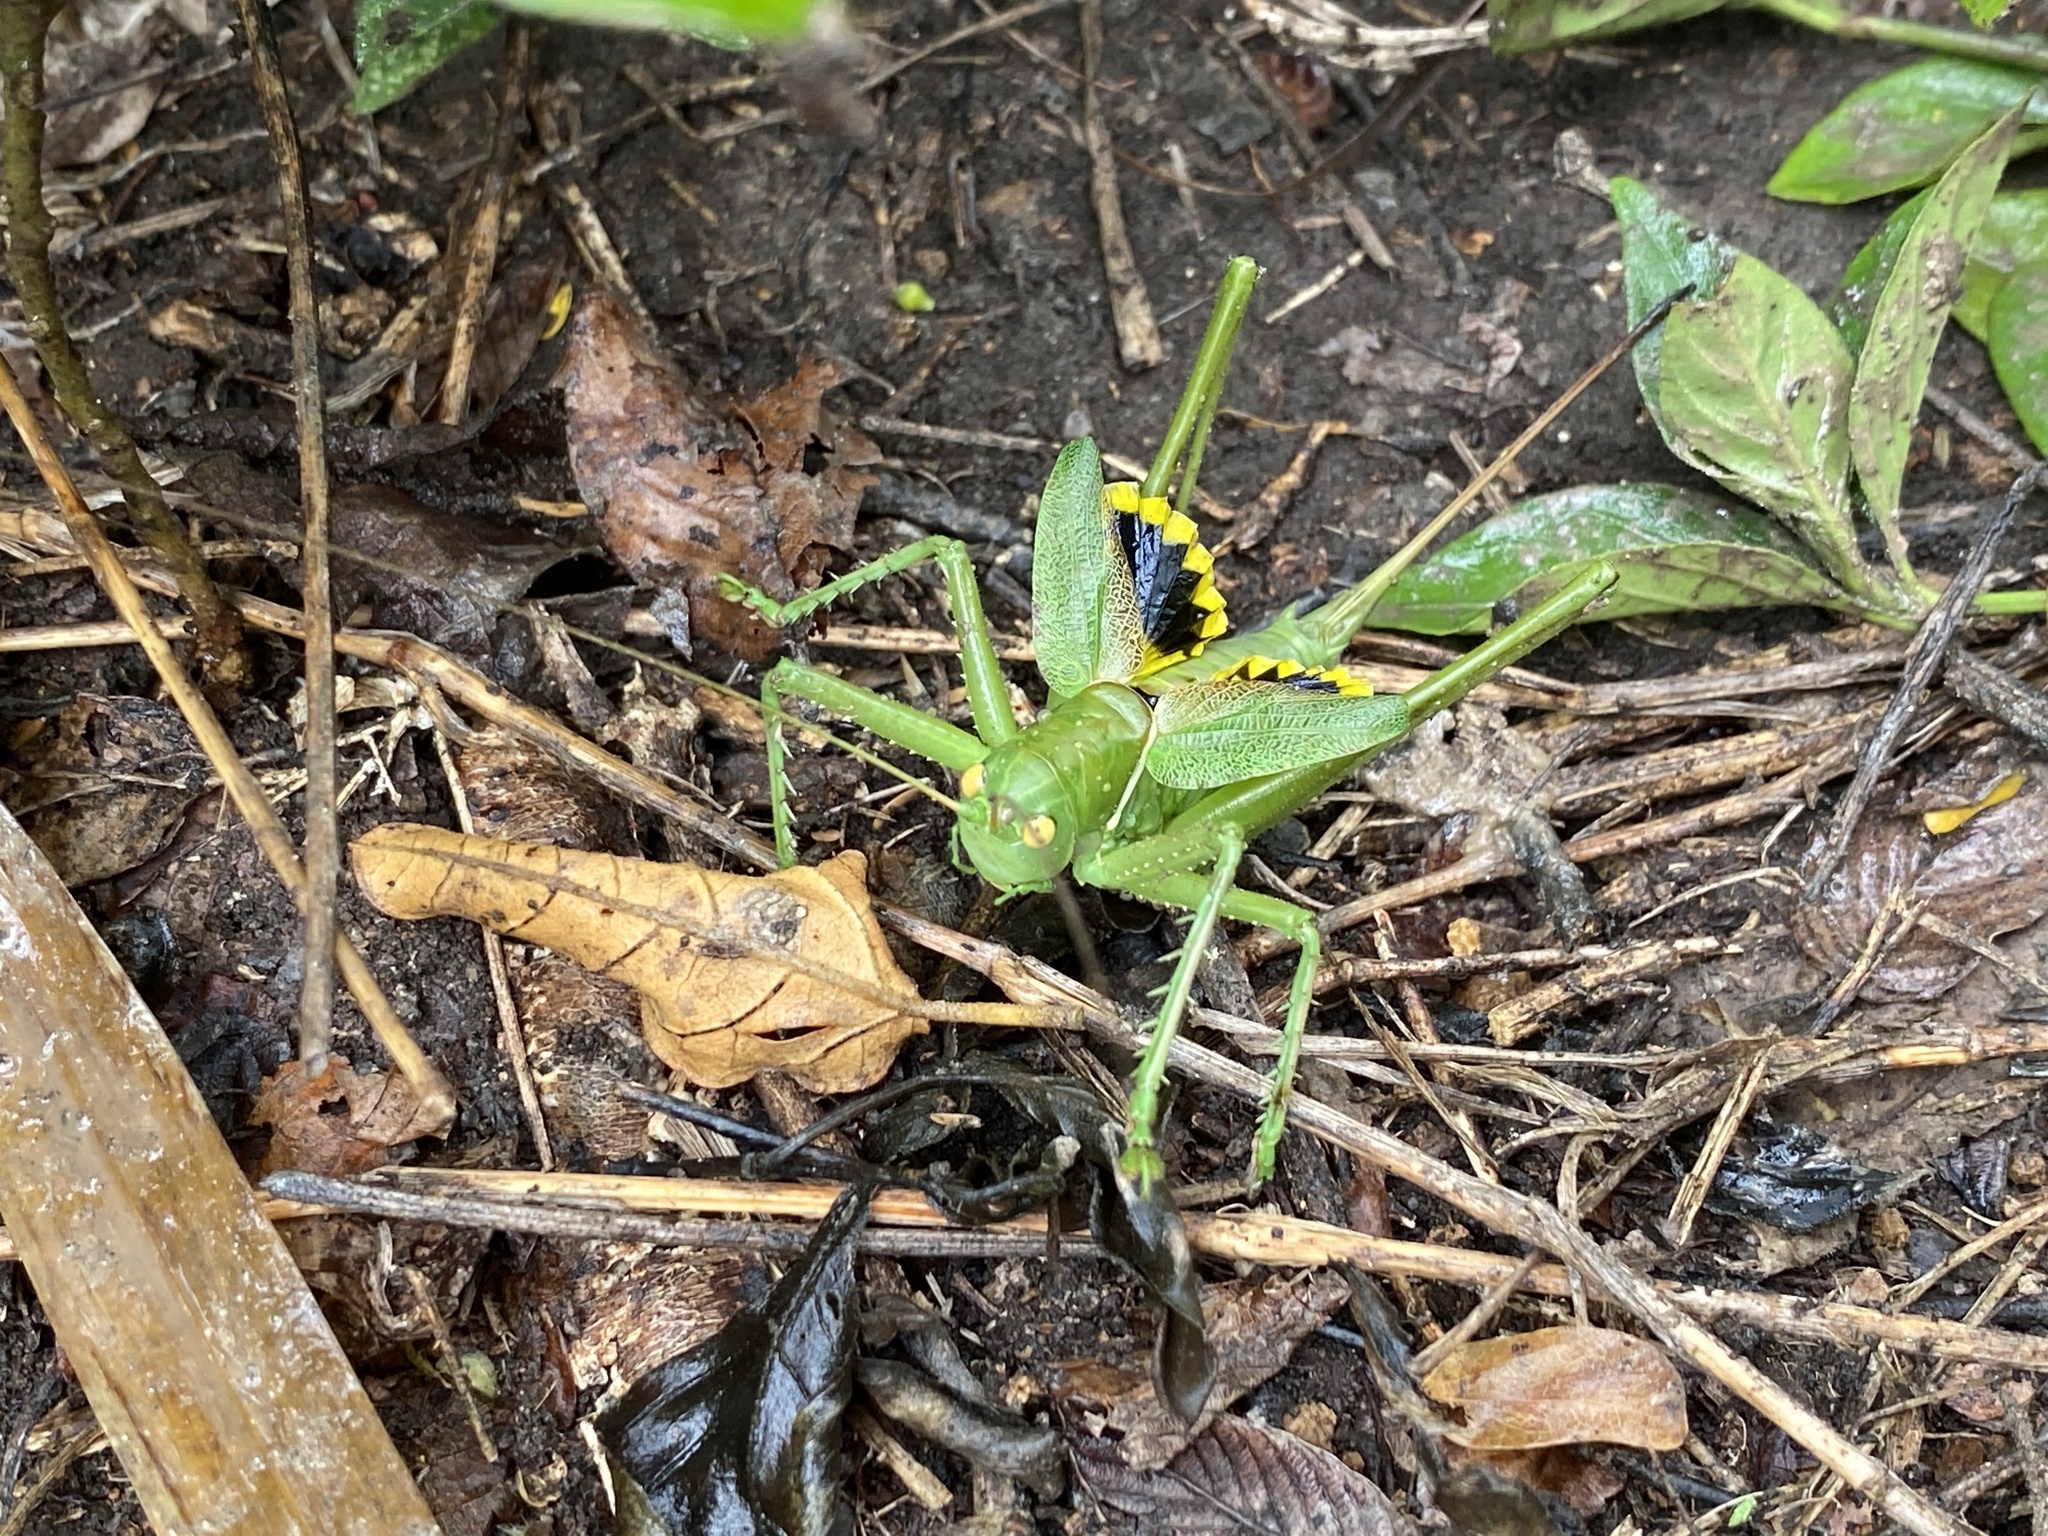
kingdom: Animalia
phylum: Arthropoda
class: Insecta
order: Orthoptera
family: Tettigoniidae
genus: Neobarrettia
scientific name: Neobarrettia victoriae
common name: Lesser arid-land katydid
